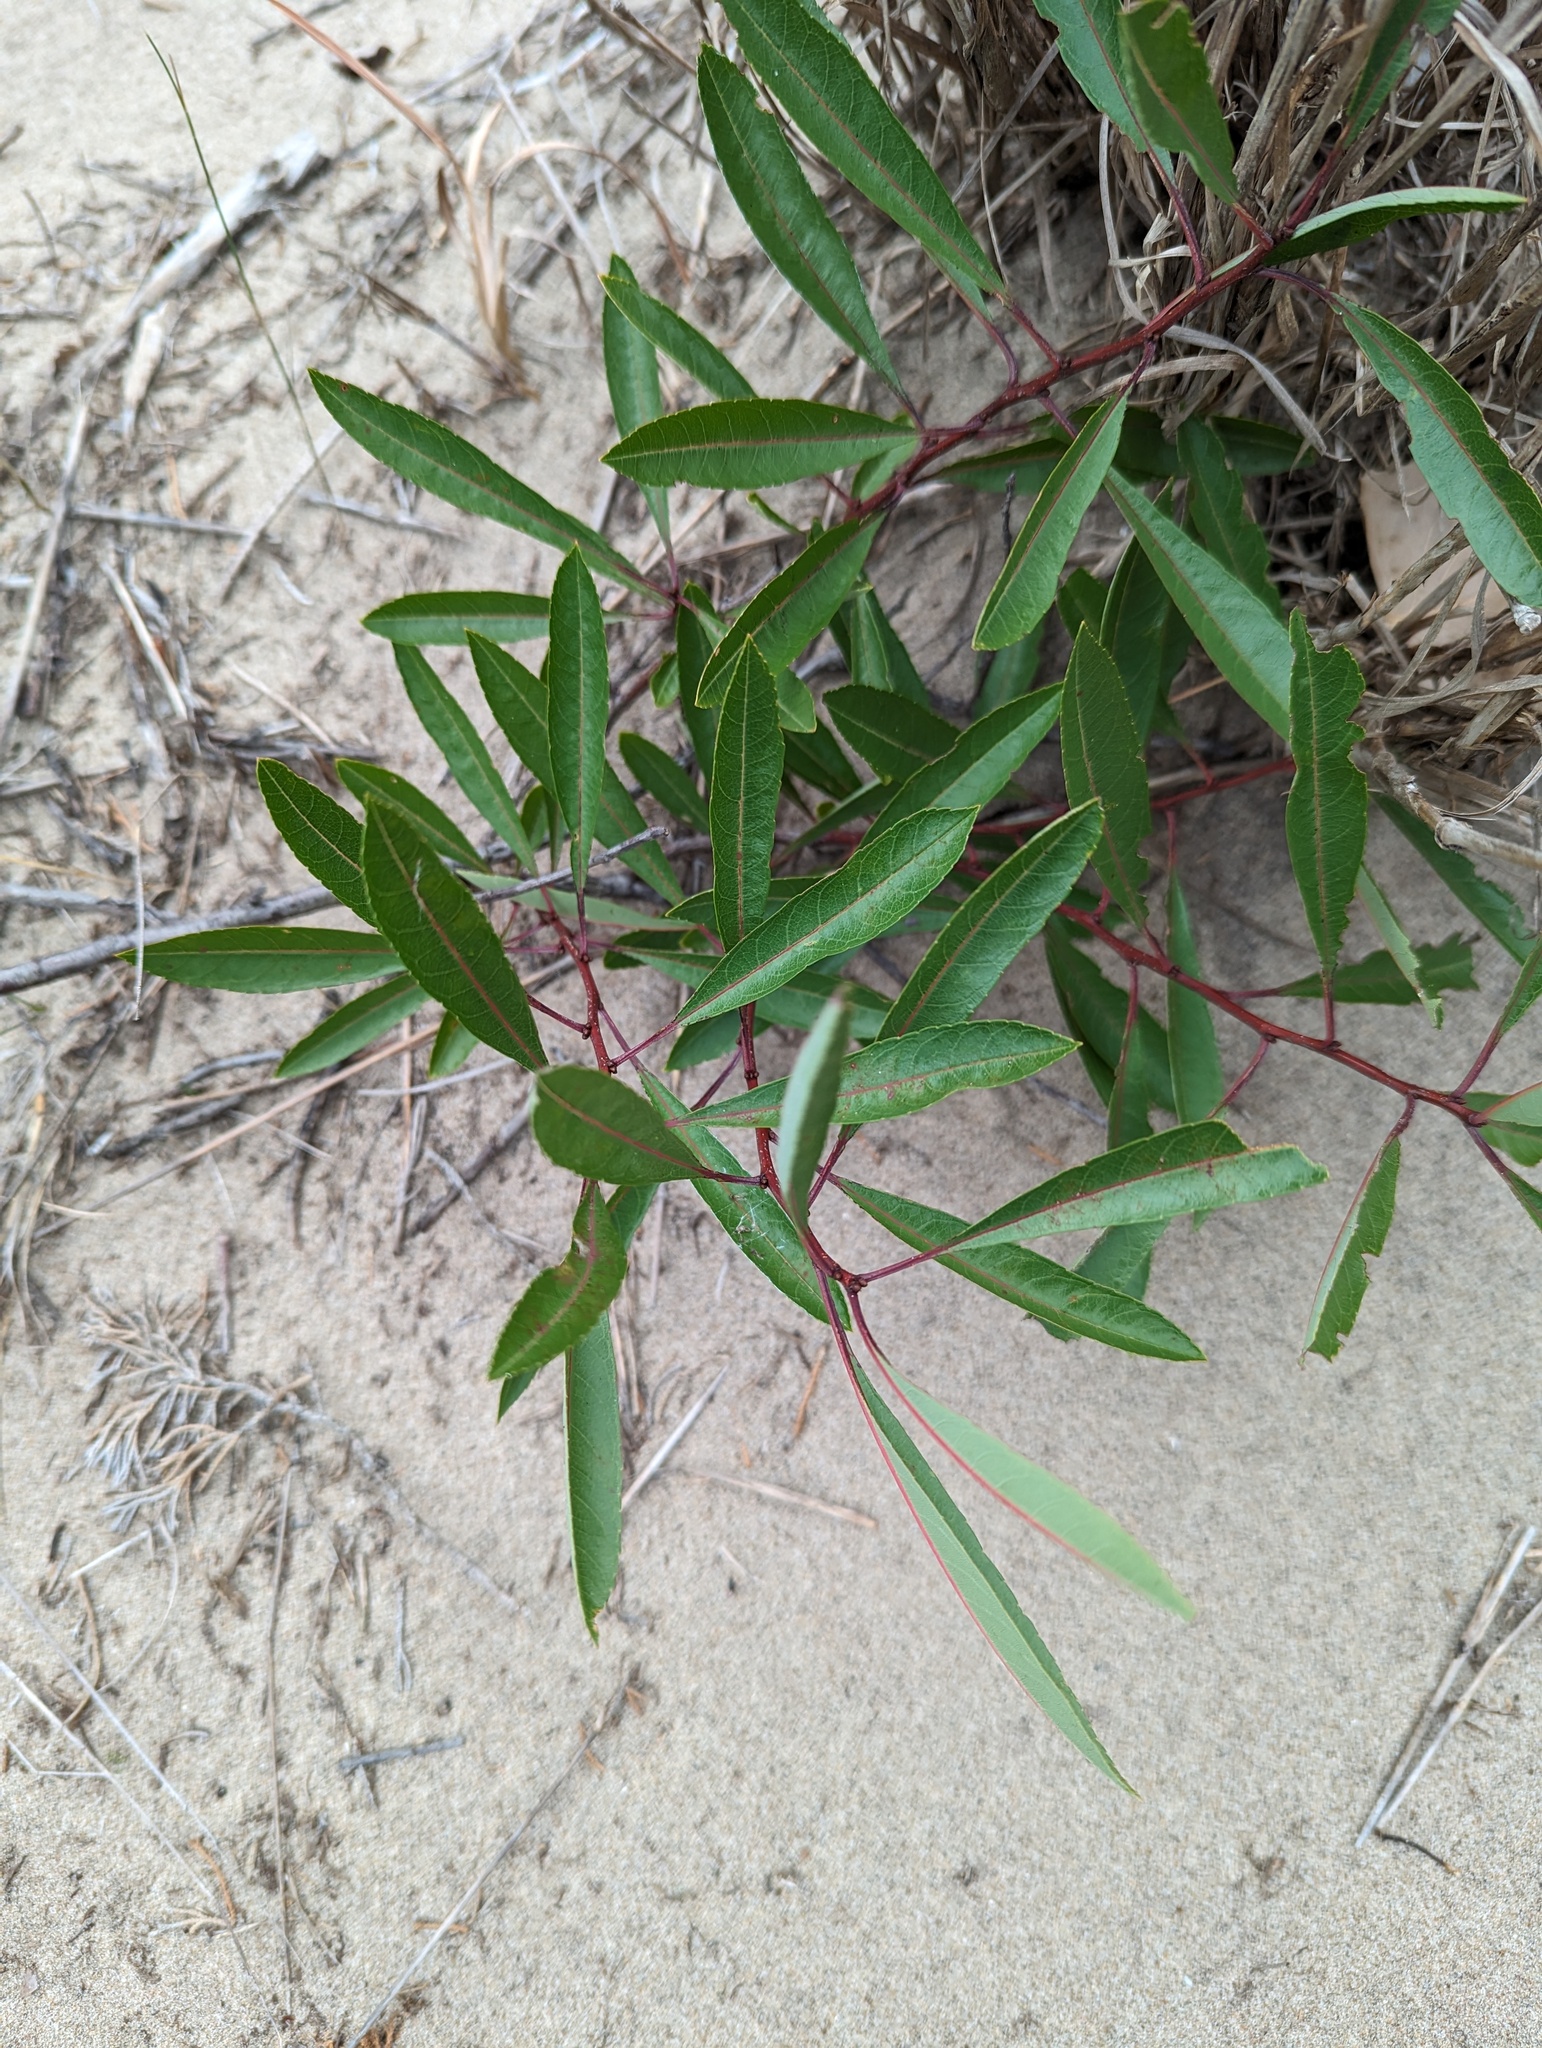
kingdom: Plantae
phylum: Tracheophyta
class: Magnoliopsida
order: Rosales
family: Rosaceae
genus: Prunus
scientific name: Prunus pumila
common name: Dwarf cherry
